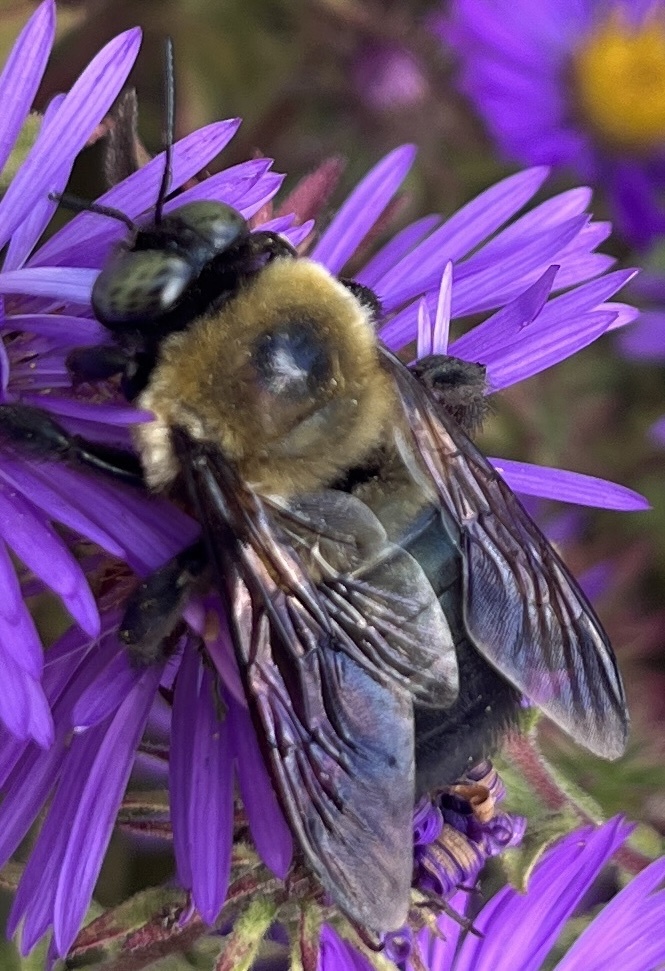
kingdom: Animalia
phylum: Arthropoda
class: Insecta
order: Hymenoptera
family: Apidae
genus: Xylocopa
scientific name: Xylocopa virginica
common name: Carpenter bee
